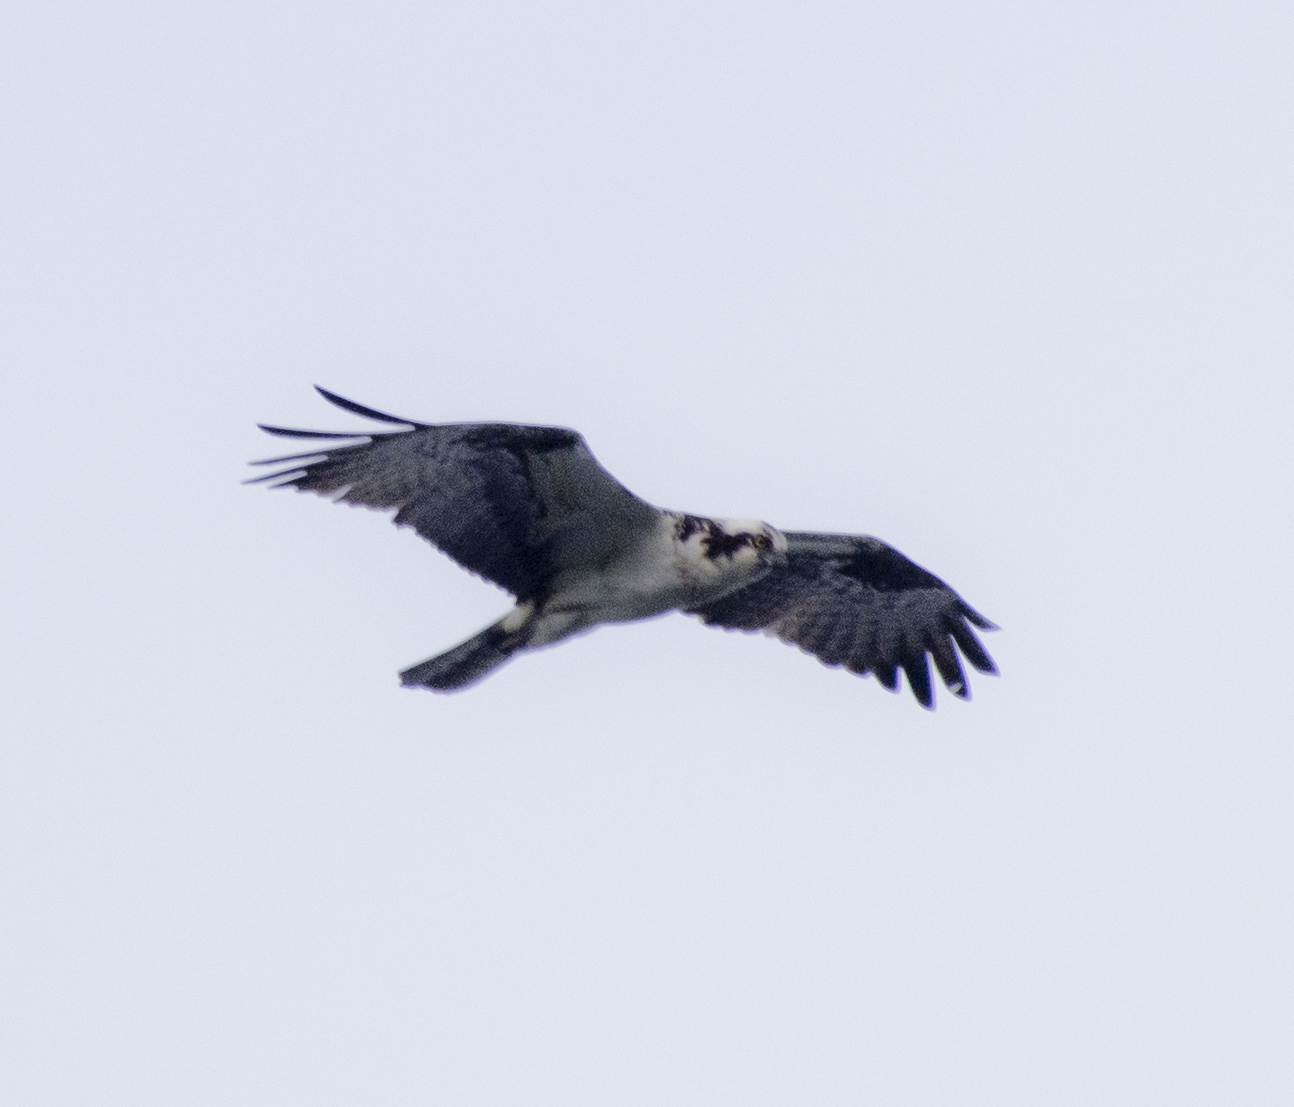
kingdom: Animalia
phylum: Chordata
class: Aves
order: Accipitriformes
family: Pandionidae
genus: Pandion
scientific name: Pandion haliaetus
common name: Osprey
